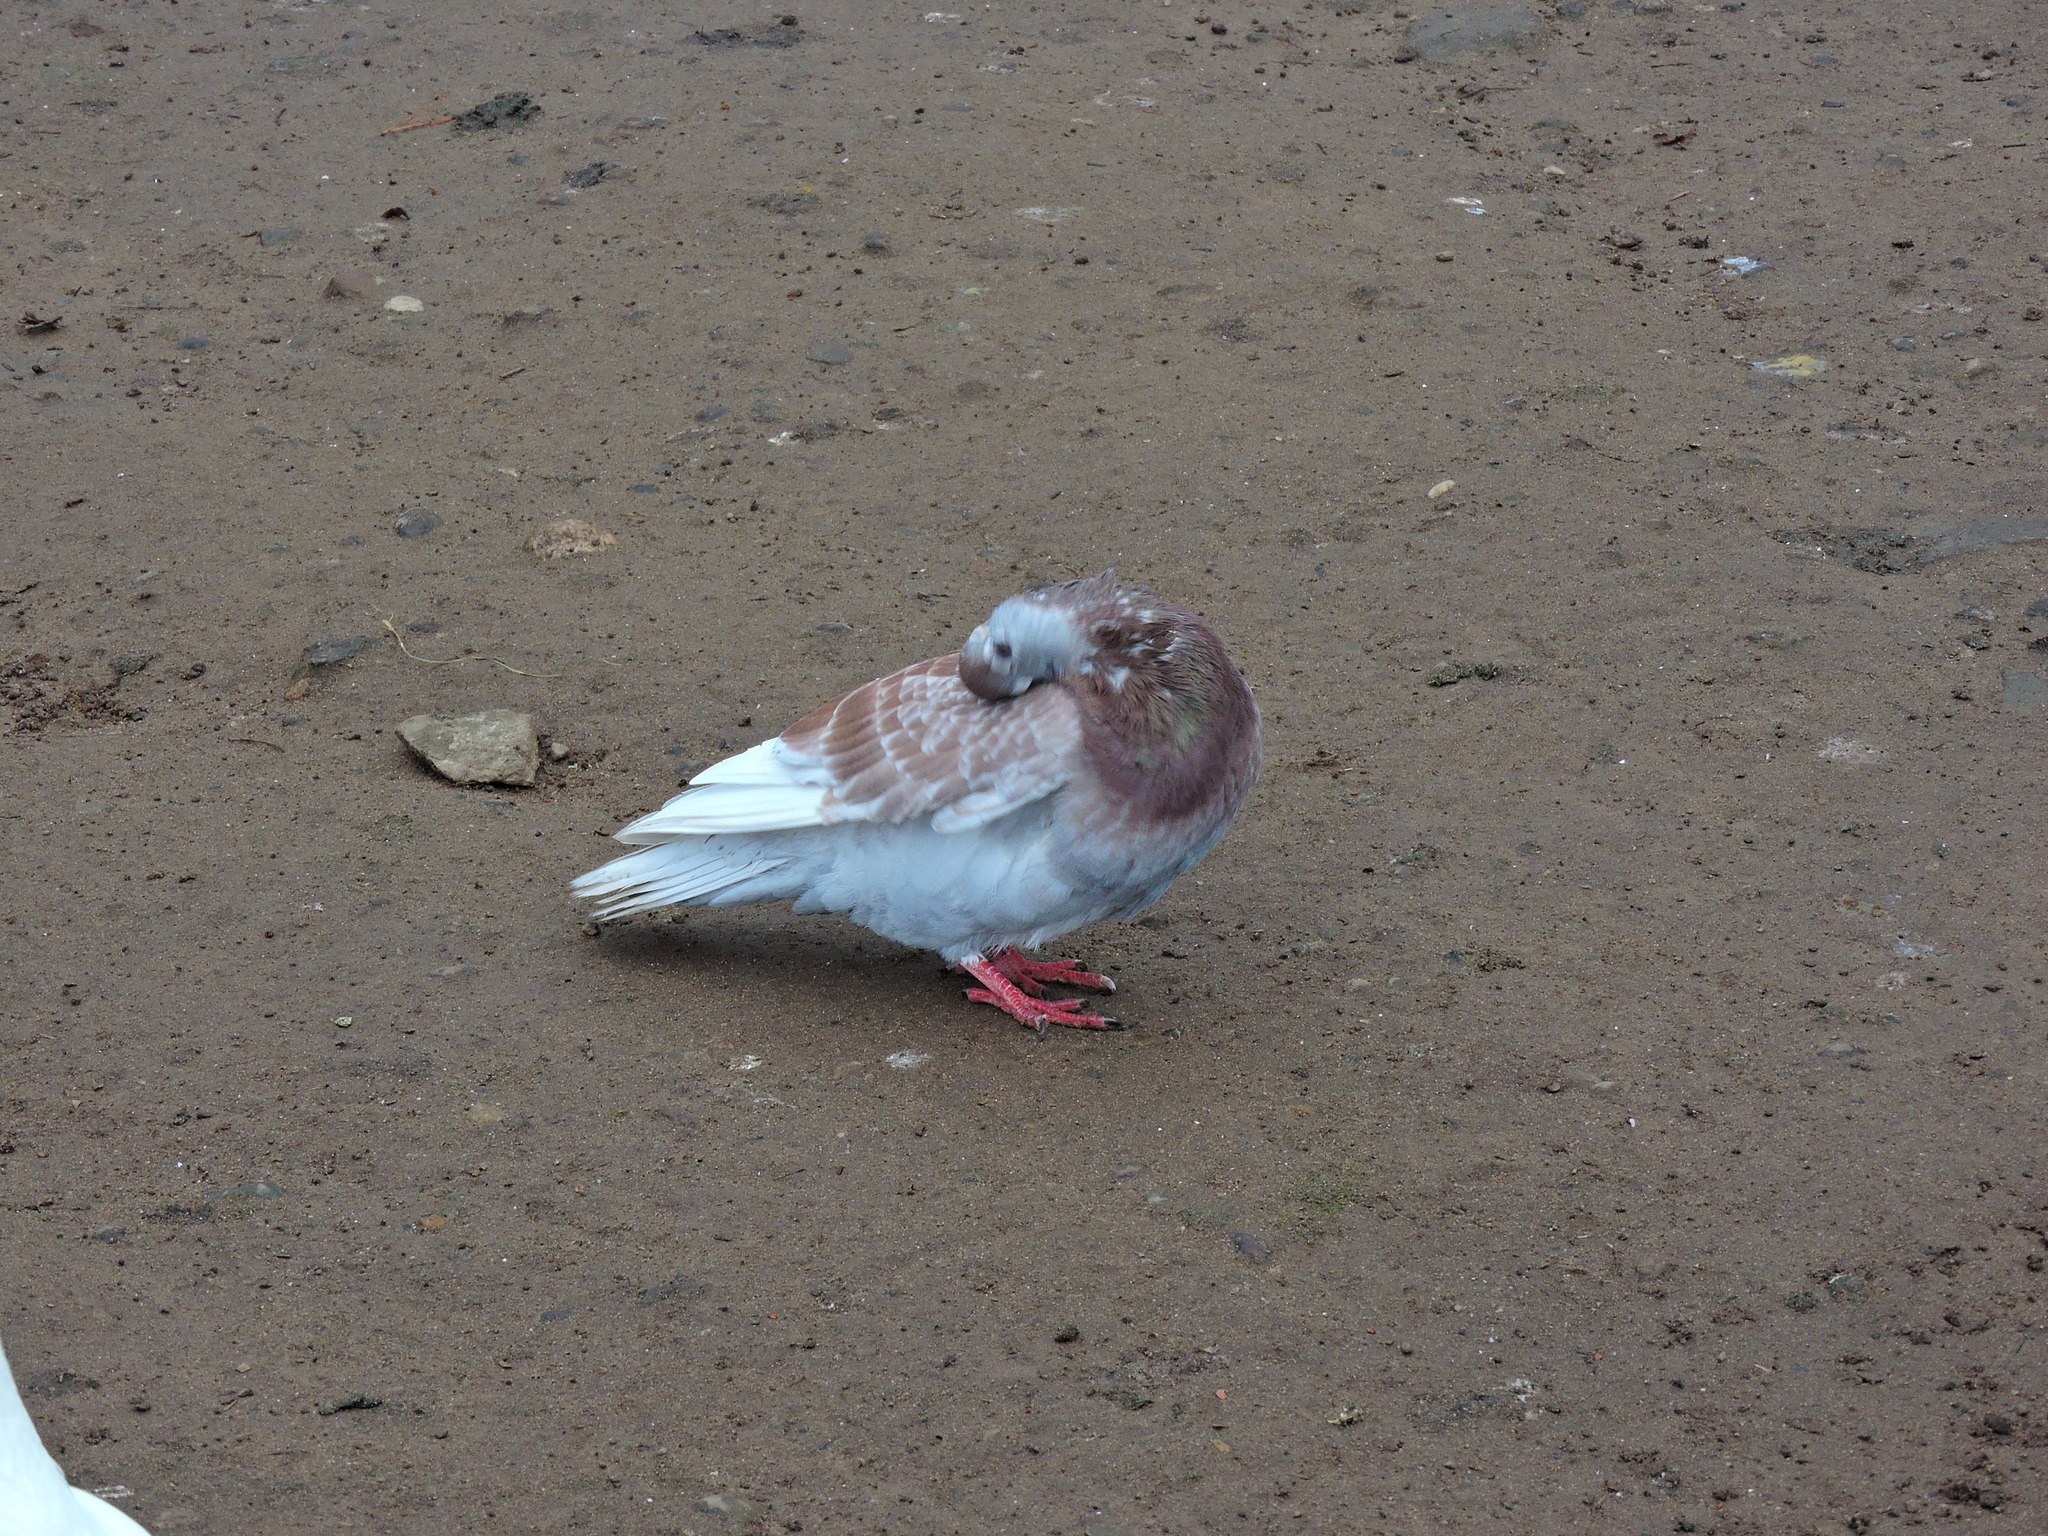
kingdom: Animalia
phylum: Chordata
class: Aves
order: Columbiformes
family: Columbidae
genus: Columba
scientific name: Columba livia
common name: Rock pigeon
